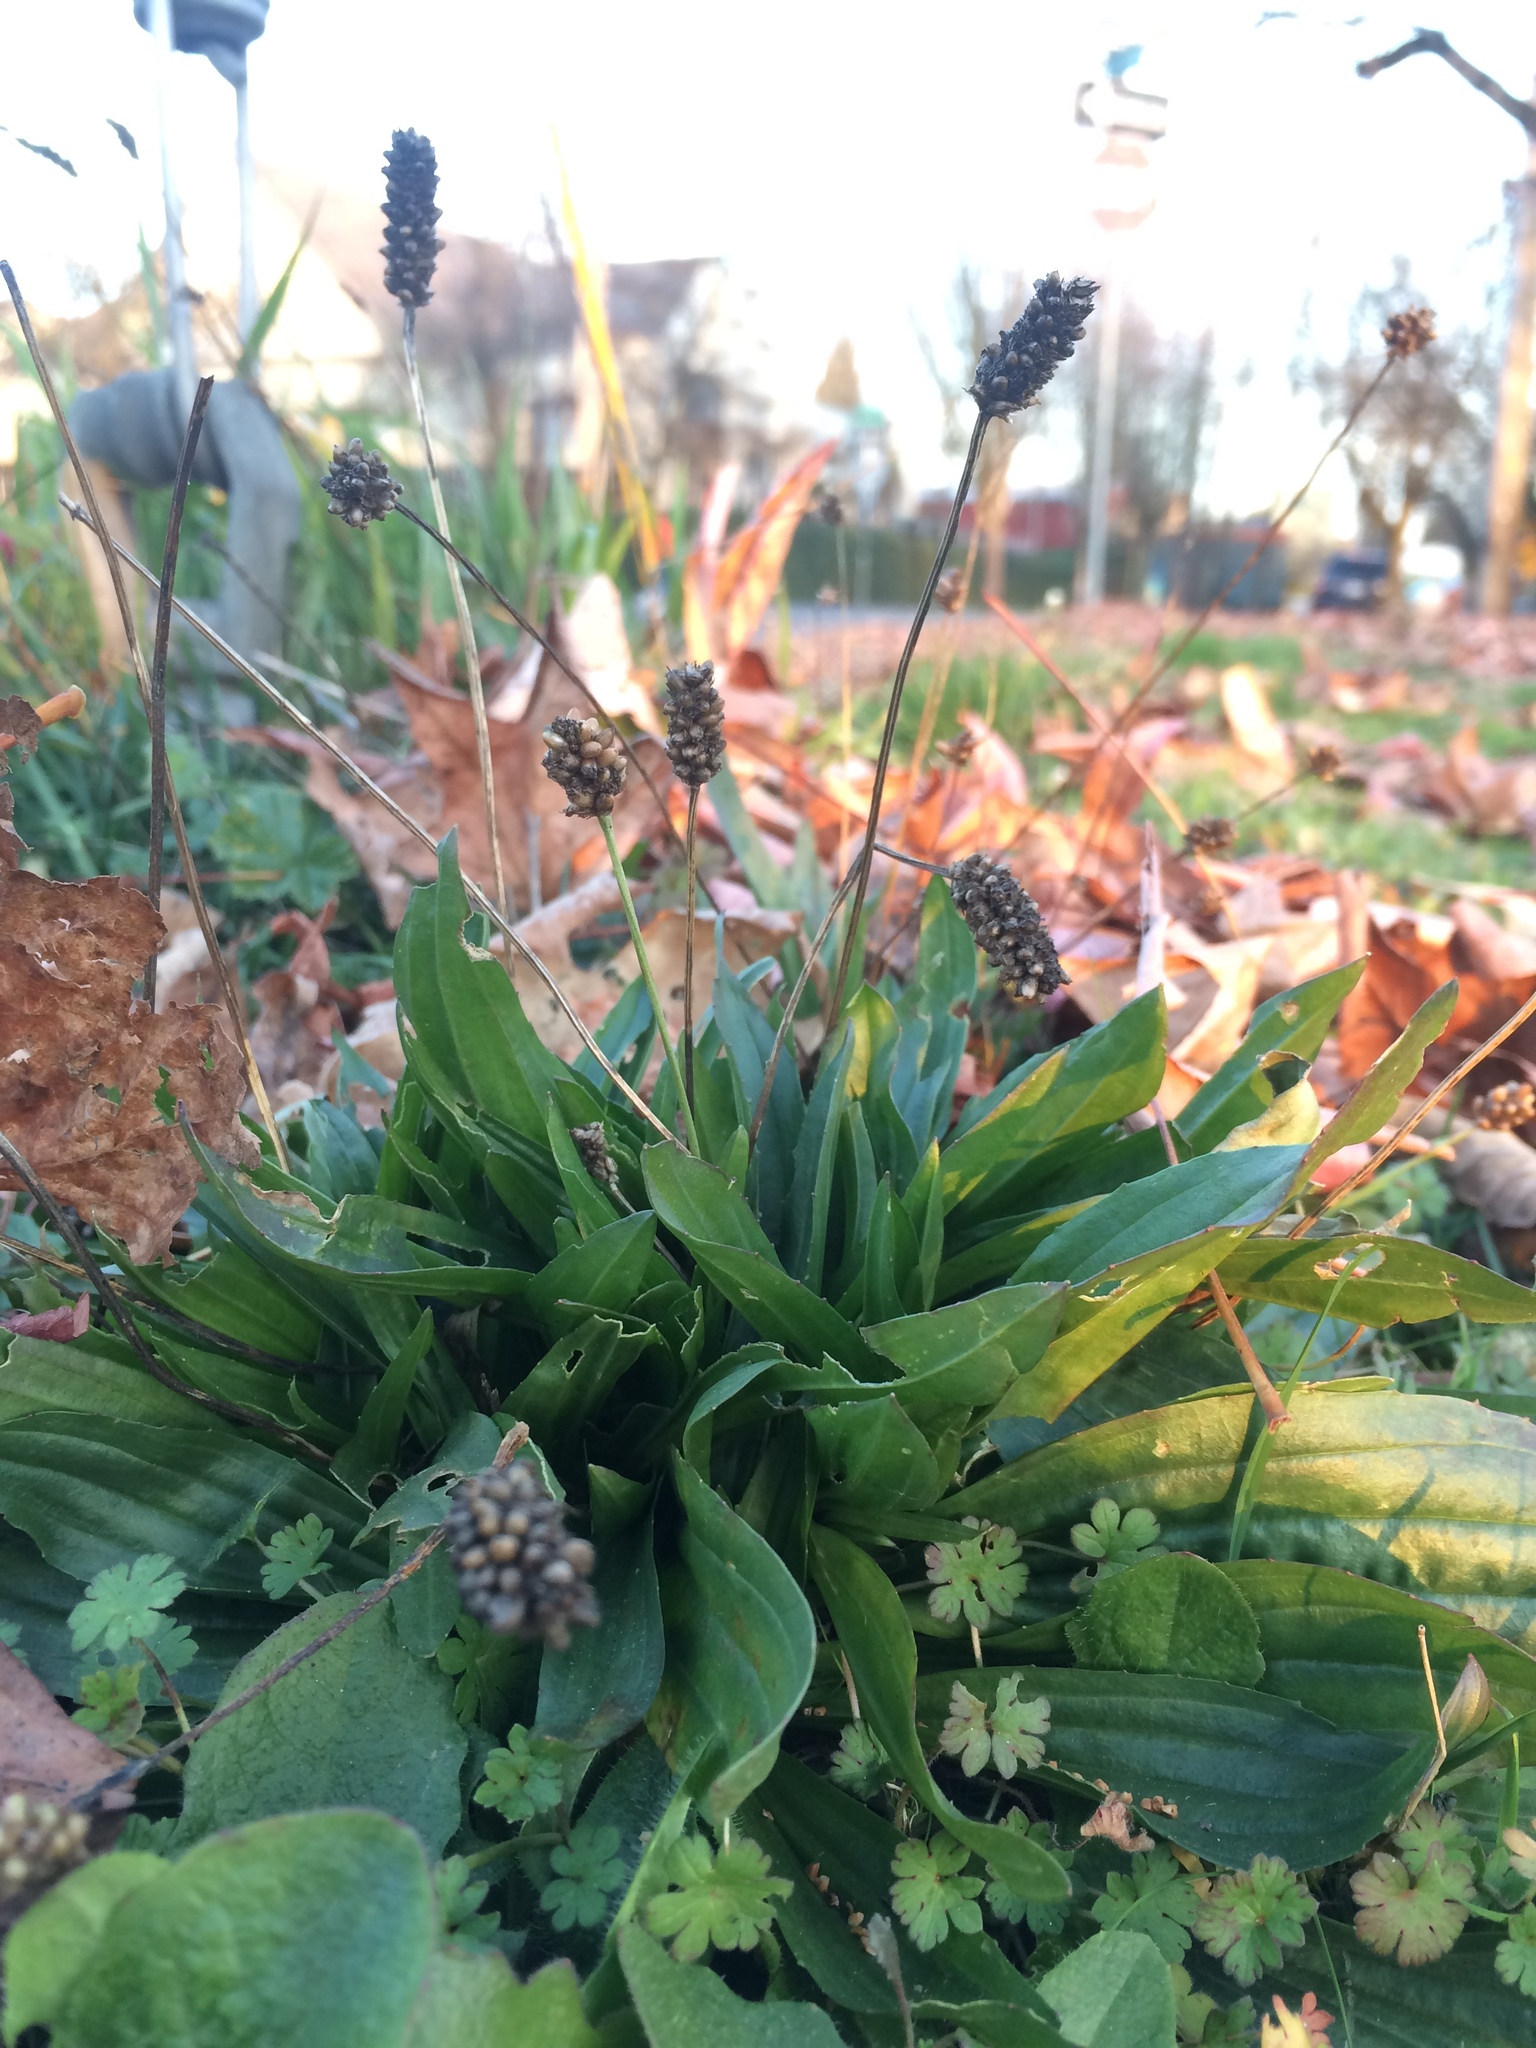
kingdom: Plantae
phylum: Tracheophyta
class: Magnoliopsida
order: Lamiales
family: Plantaginaceae
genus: Plantago
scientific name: Plantago lanceolata
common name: Ribwort plantain
